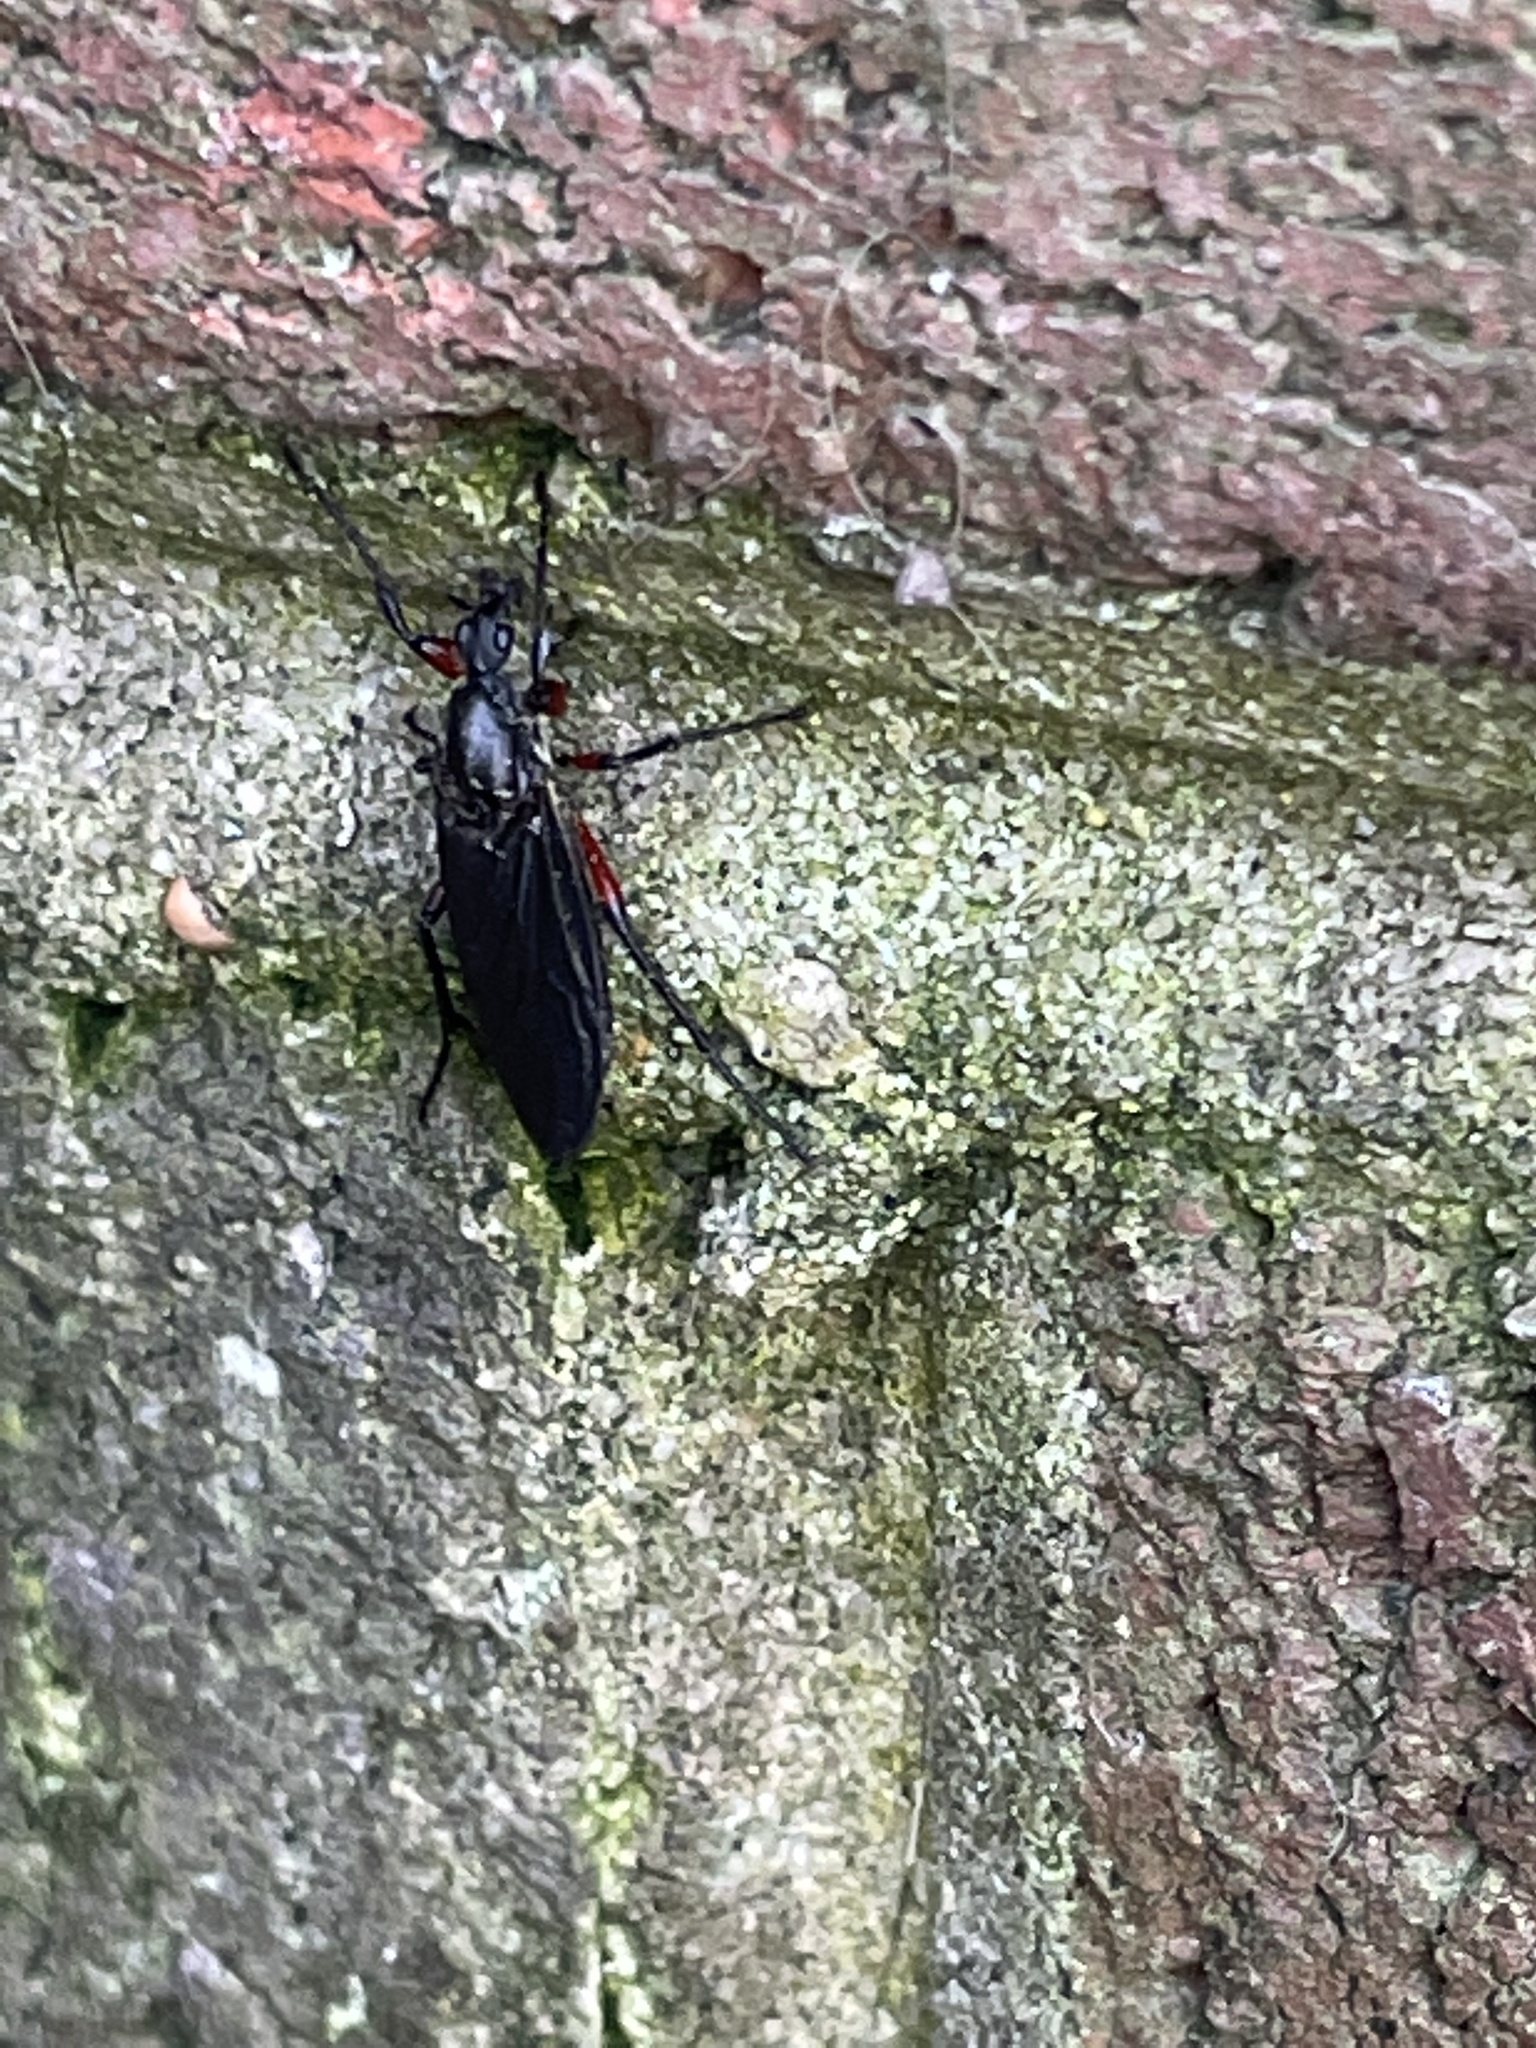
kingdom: Animalia
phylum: Arthropoda
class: Insecta
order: Diptera
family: Bibionidae
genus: Bibio
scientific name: Bibio femoratus
